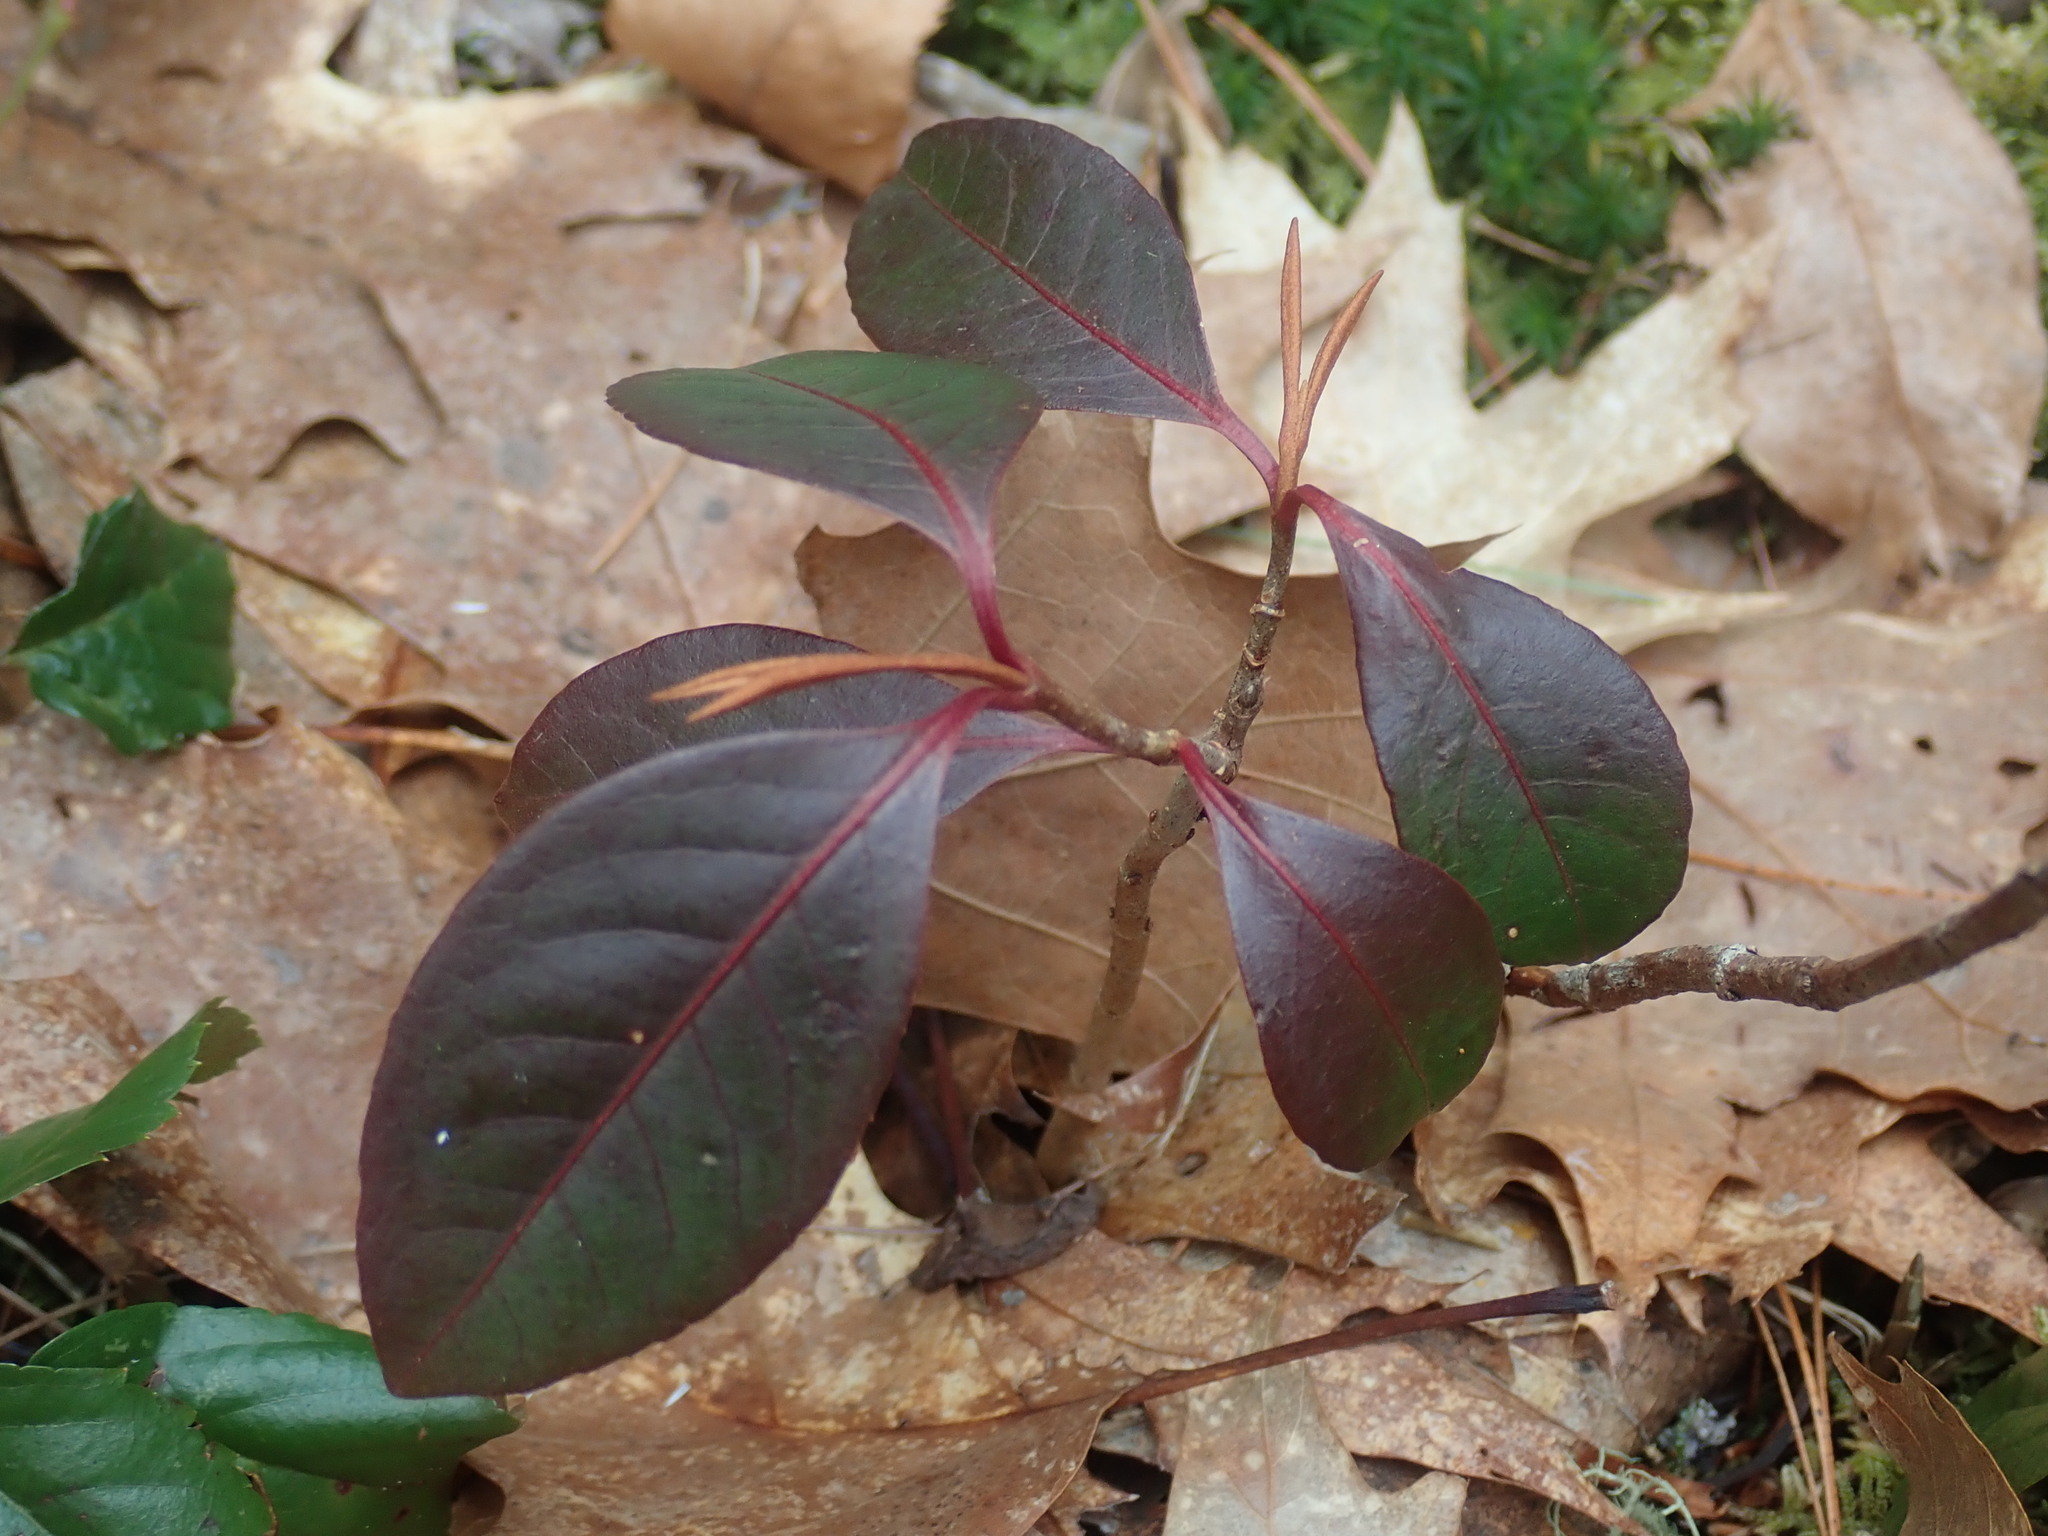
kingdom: Plantae
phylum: Tracheophyta
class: Magnoliopsida
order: Dipsacales
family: Viburnaceae
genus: Viburnum
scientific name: Viburnum cassinoides
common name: Swamp haw
